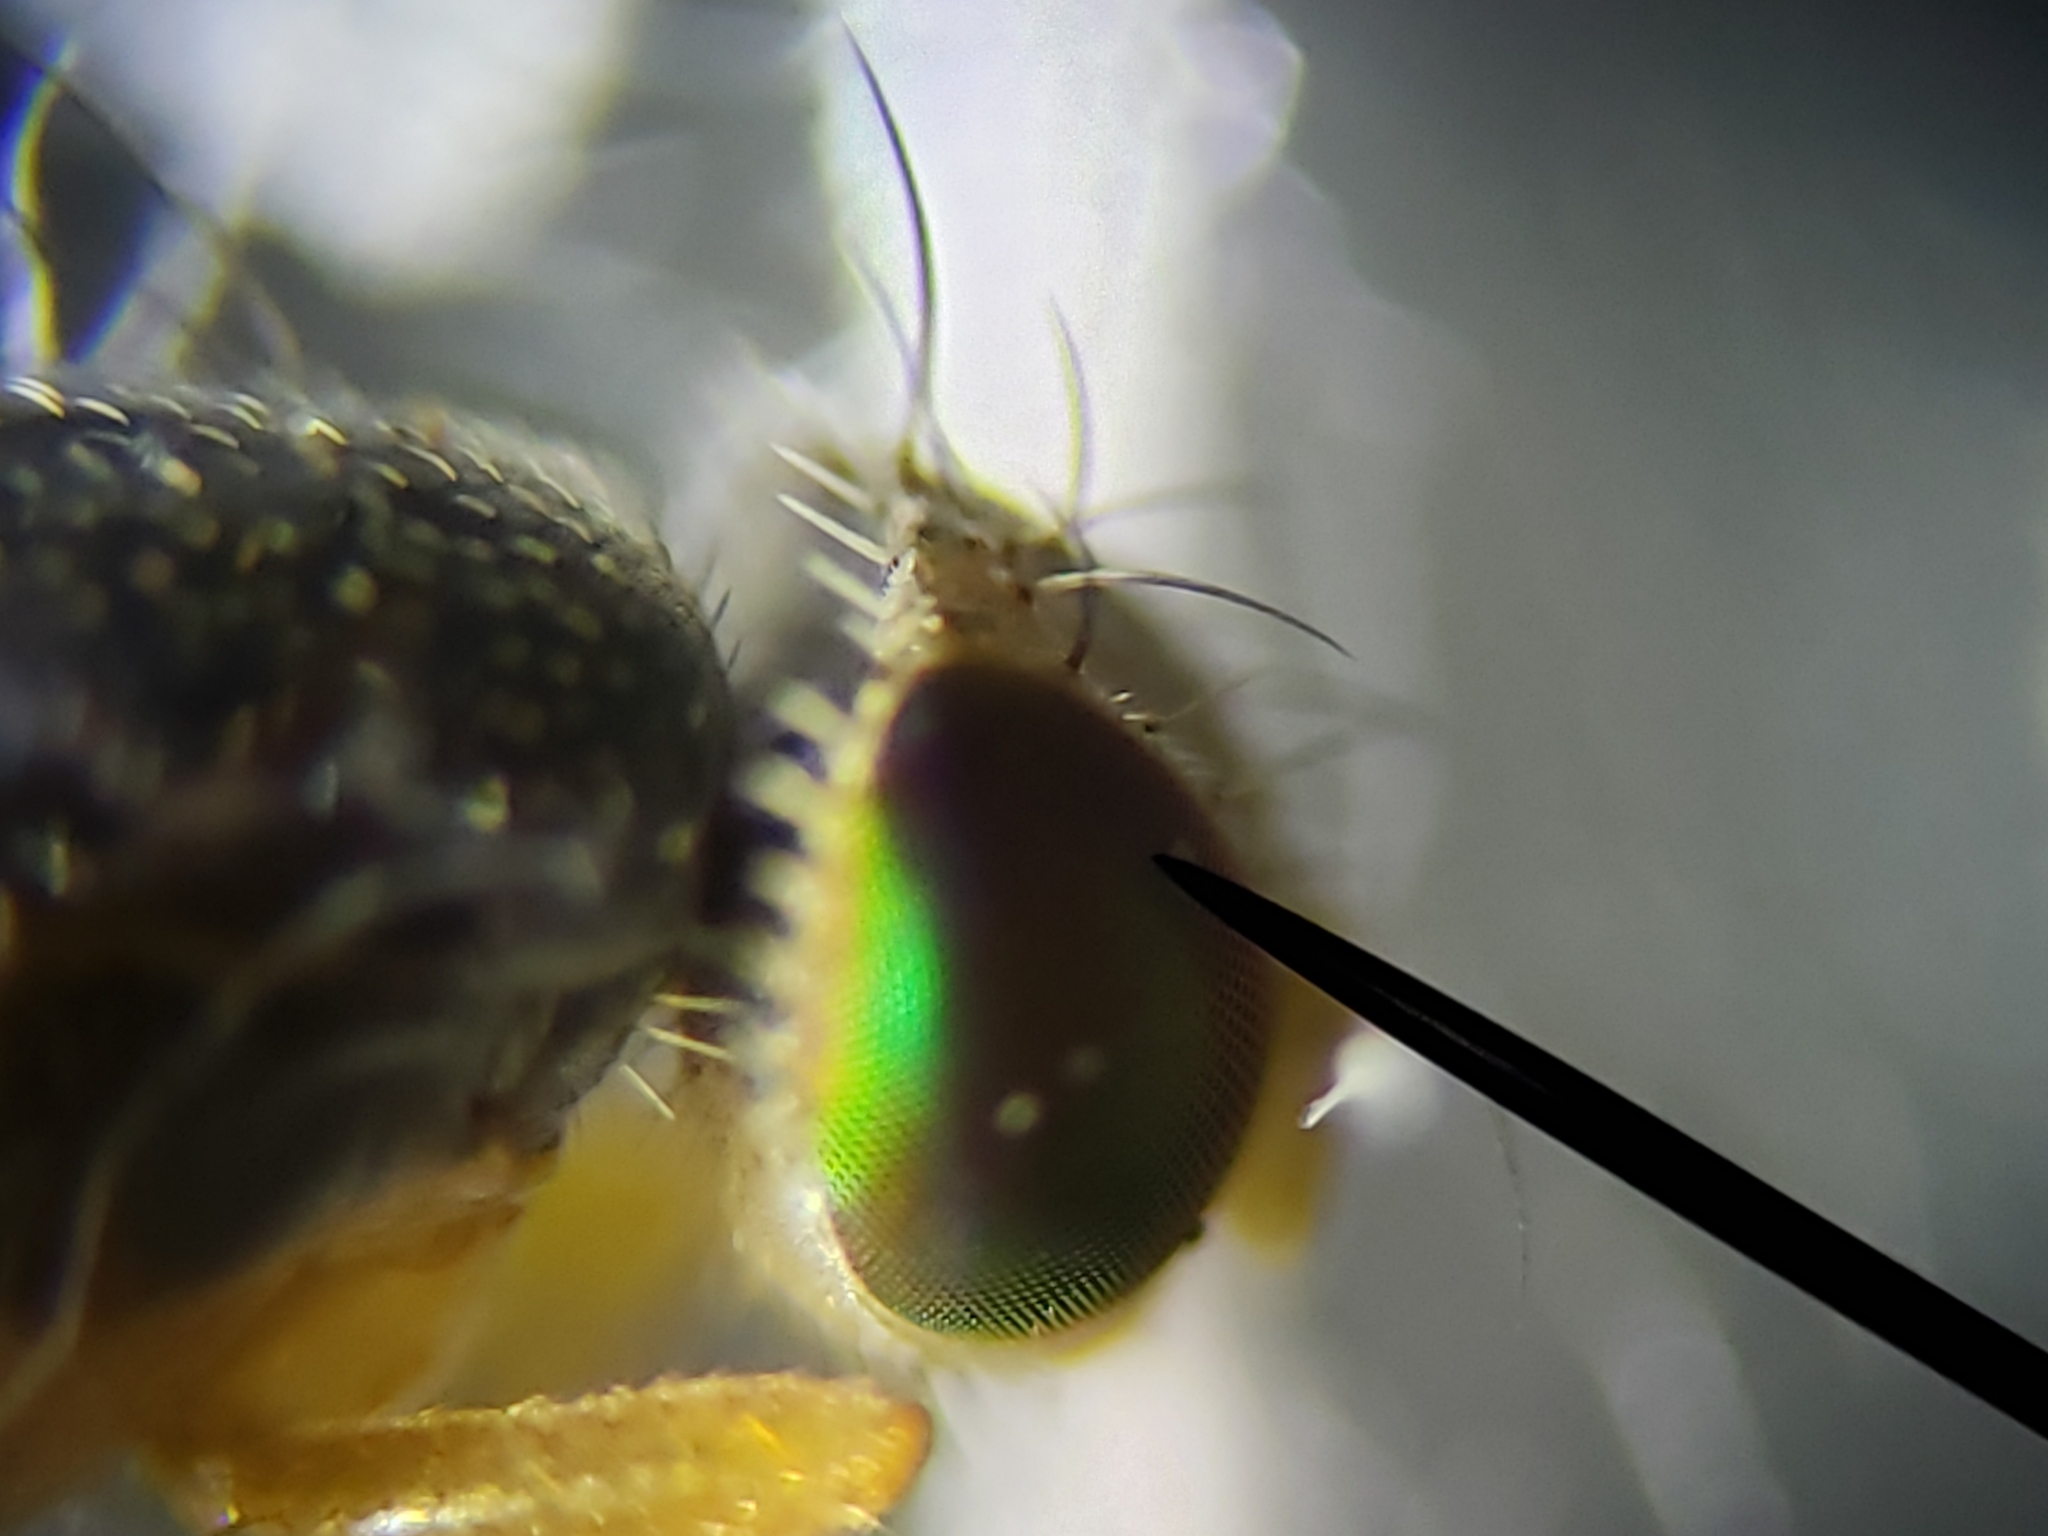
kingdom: Animalia
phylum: Arthropoda
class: Insecta
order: Diptera
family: Tephritidae
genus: Xanthaciura
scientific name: Xanthaciura insecta
